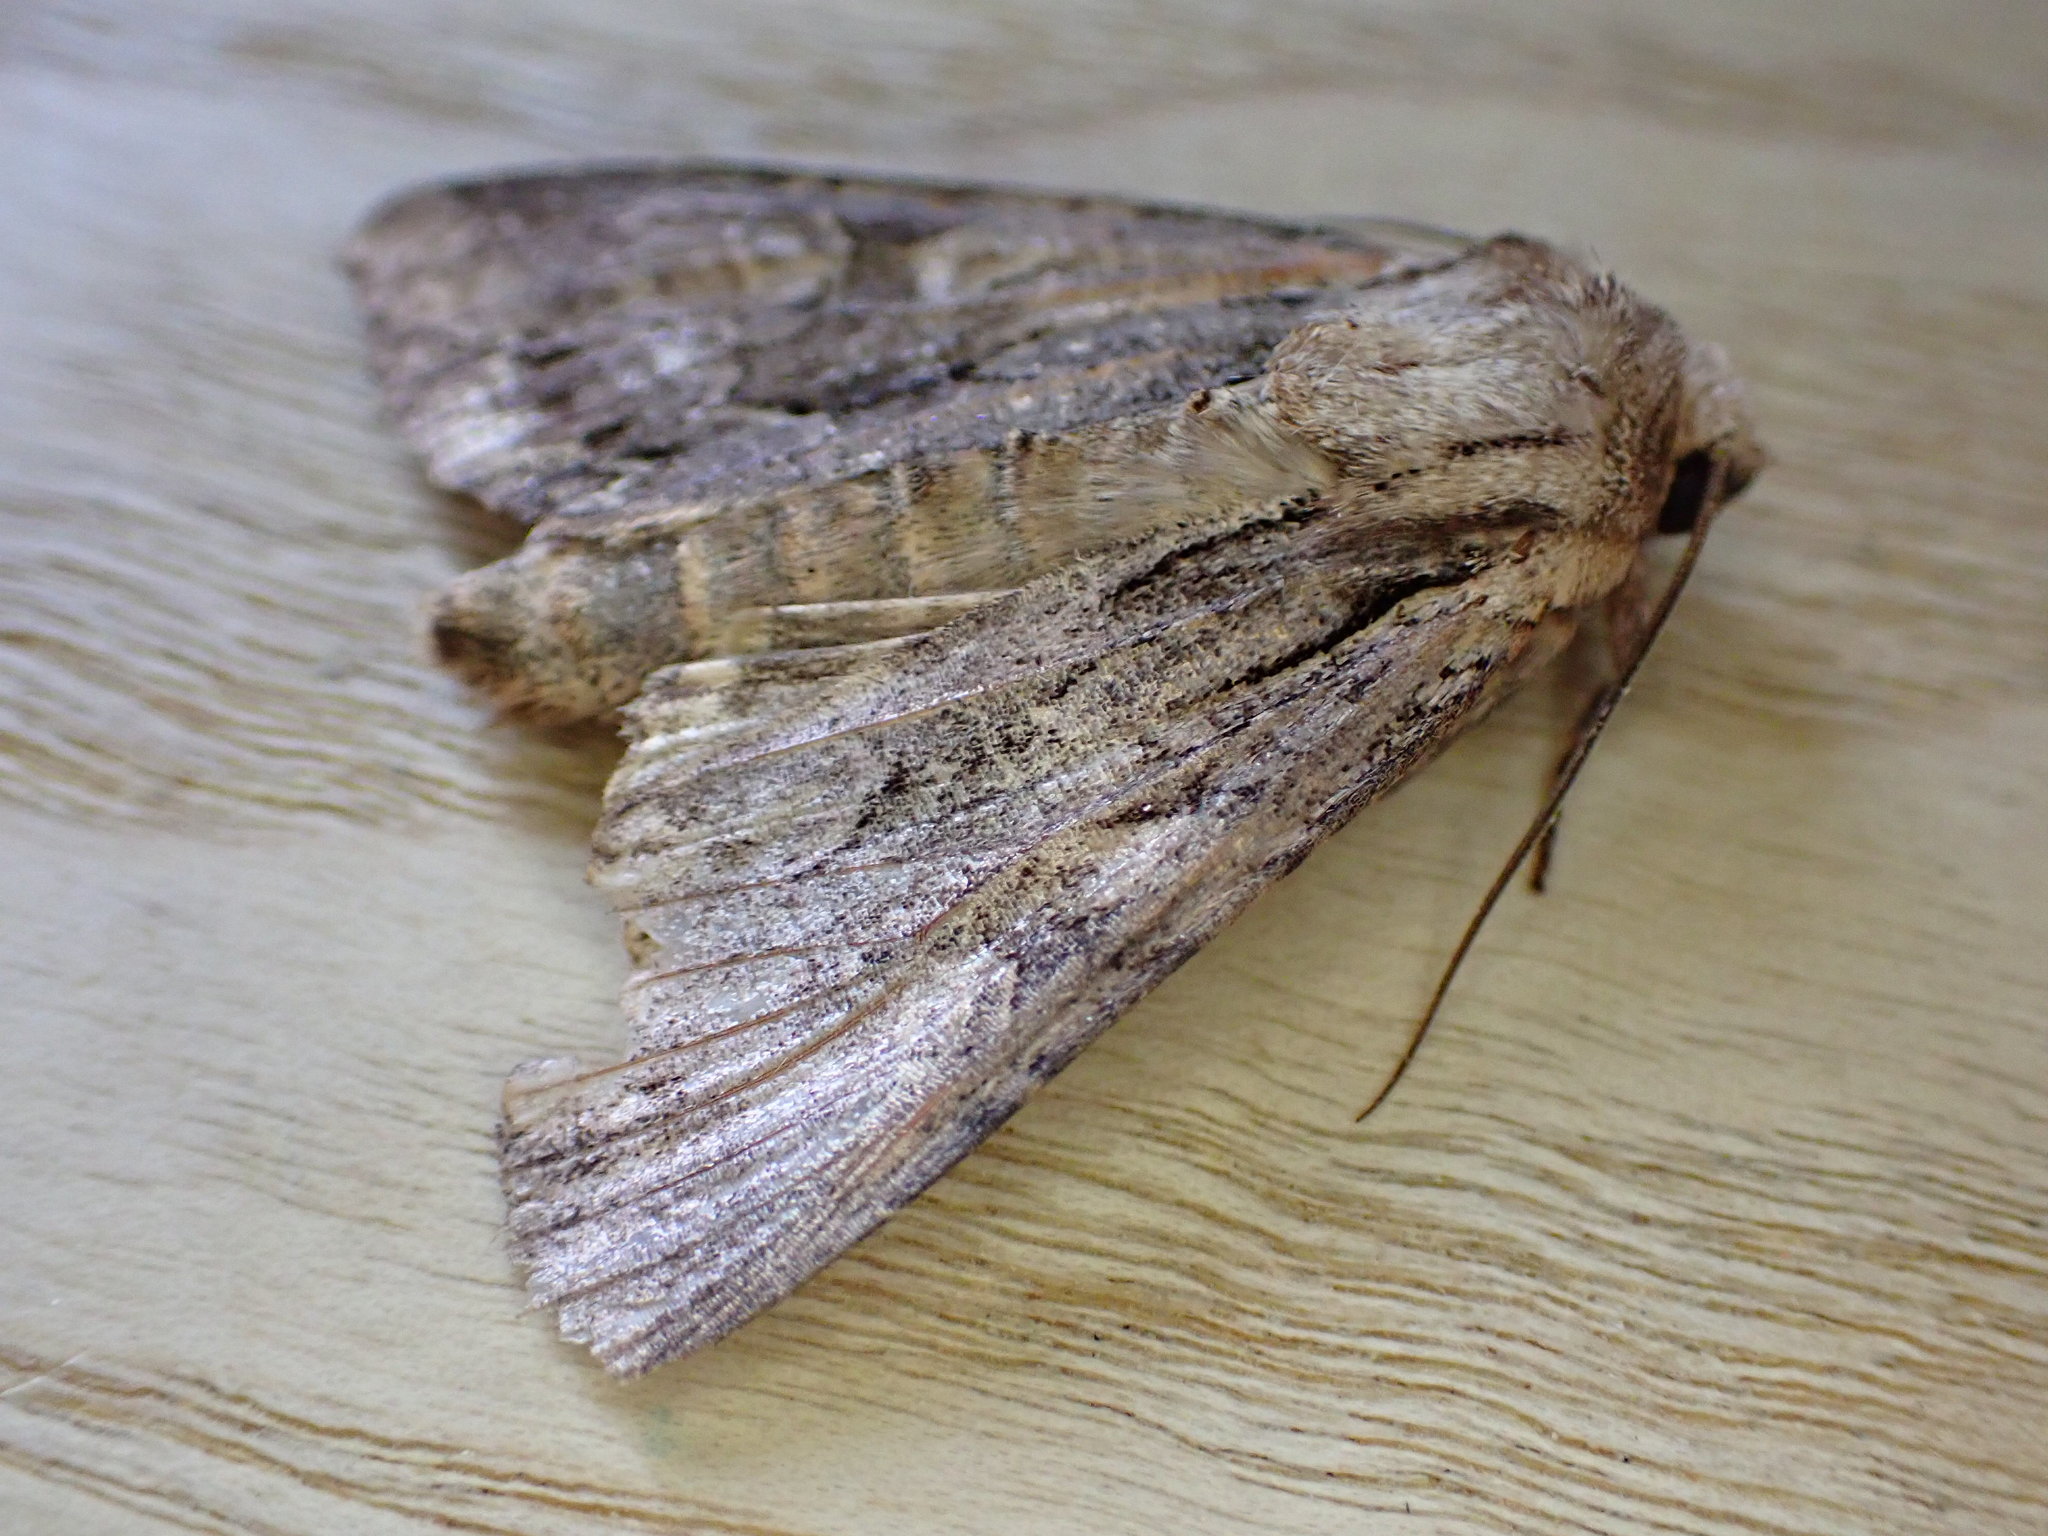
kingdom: Animalia
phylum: Arthropoda
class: Insecta
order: Lepidoptera
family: Noctuidae
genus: Apamea
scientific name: Apamea monoglypha
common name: Dark arches
